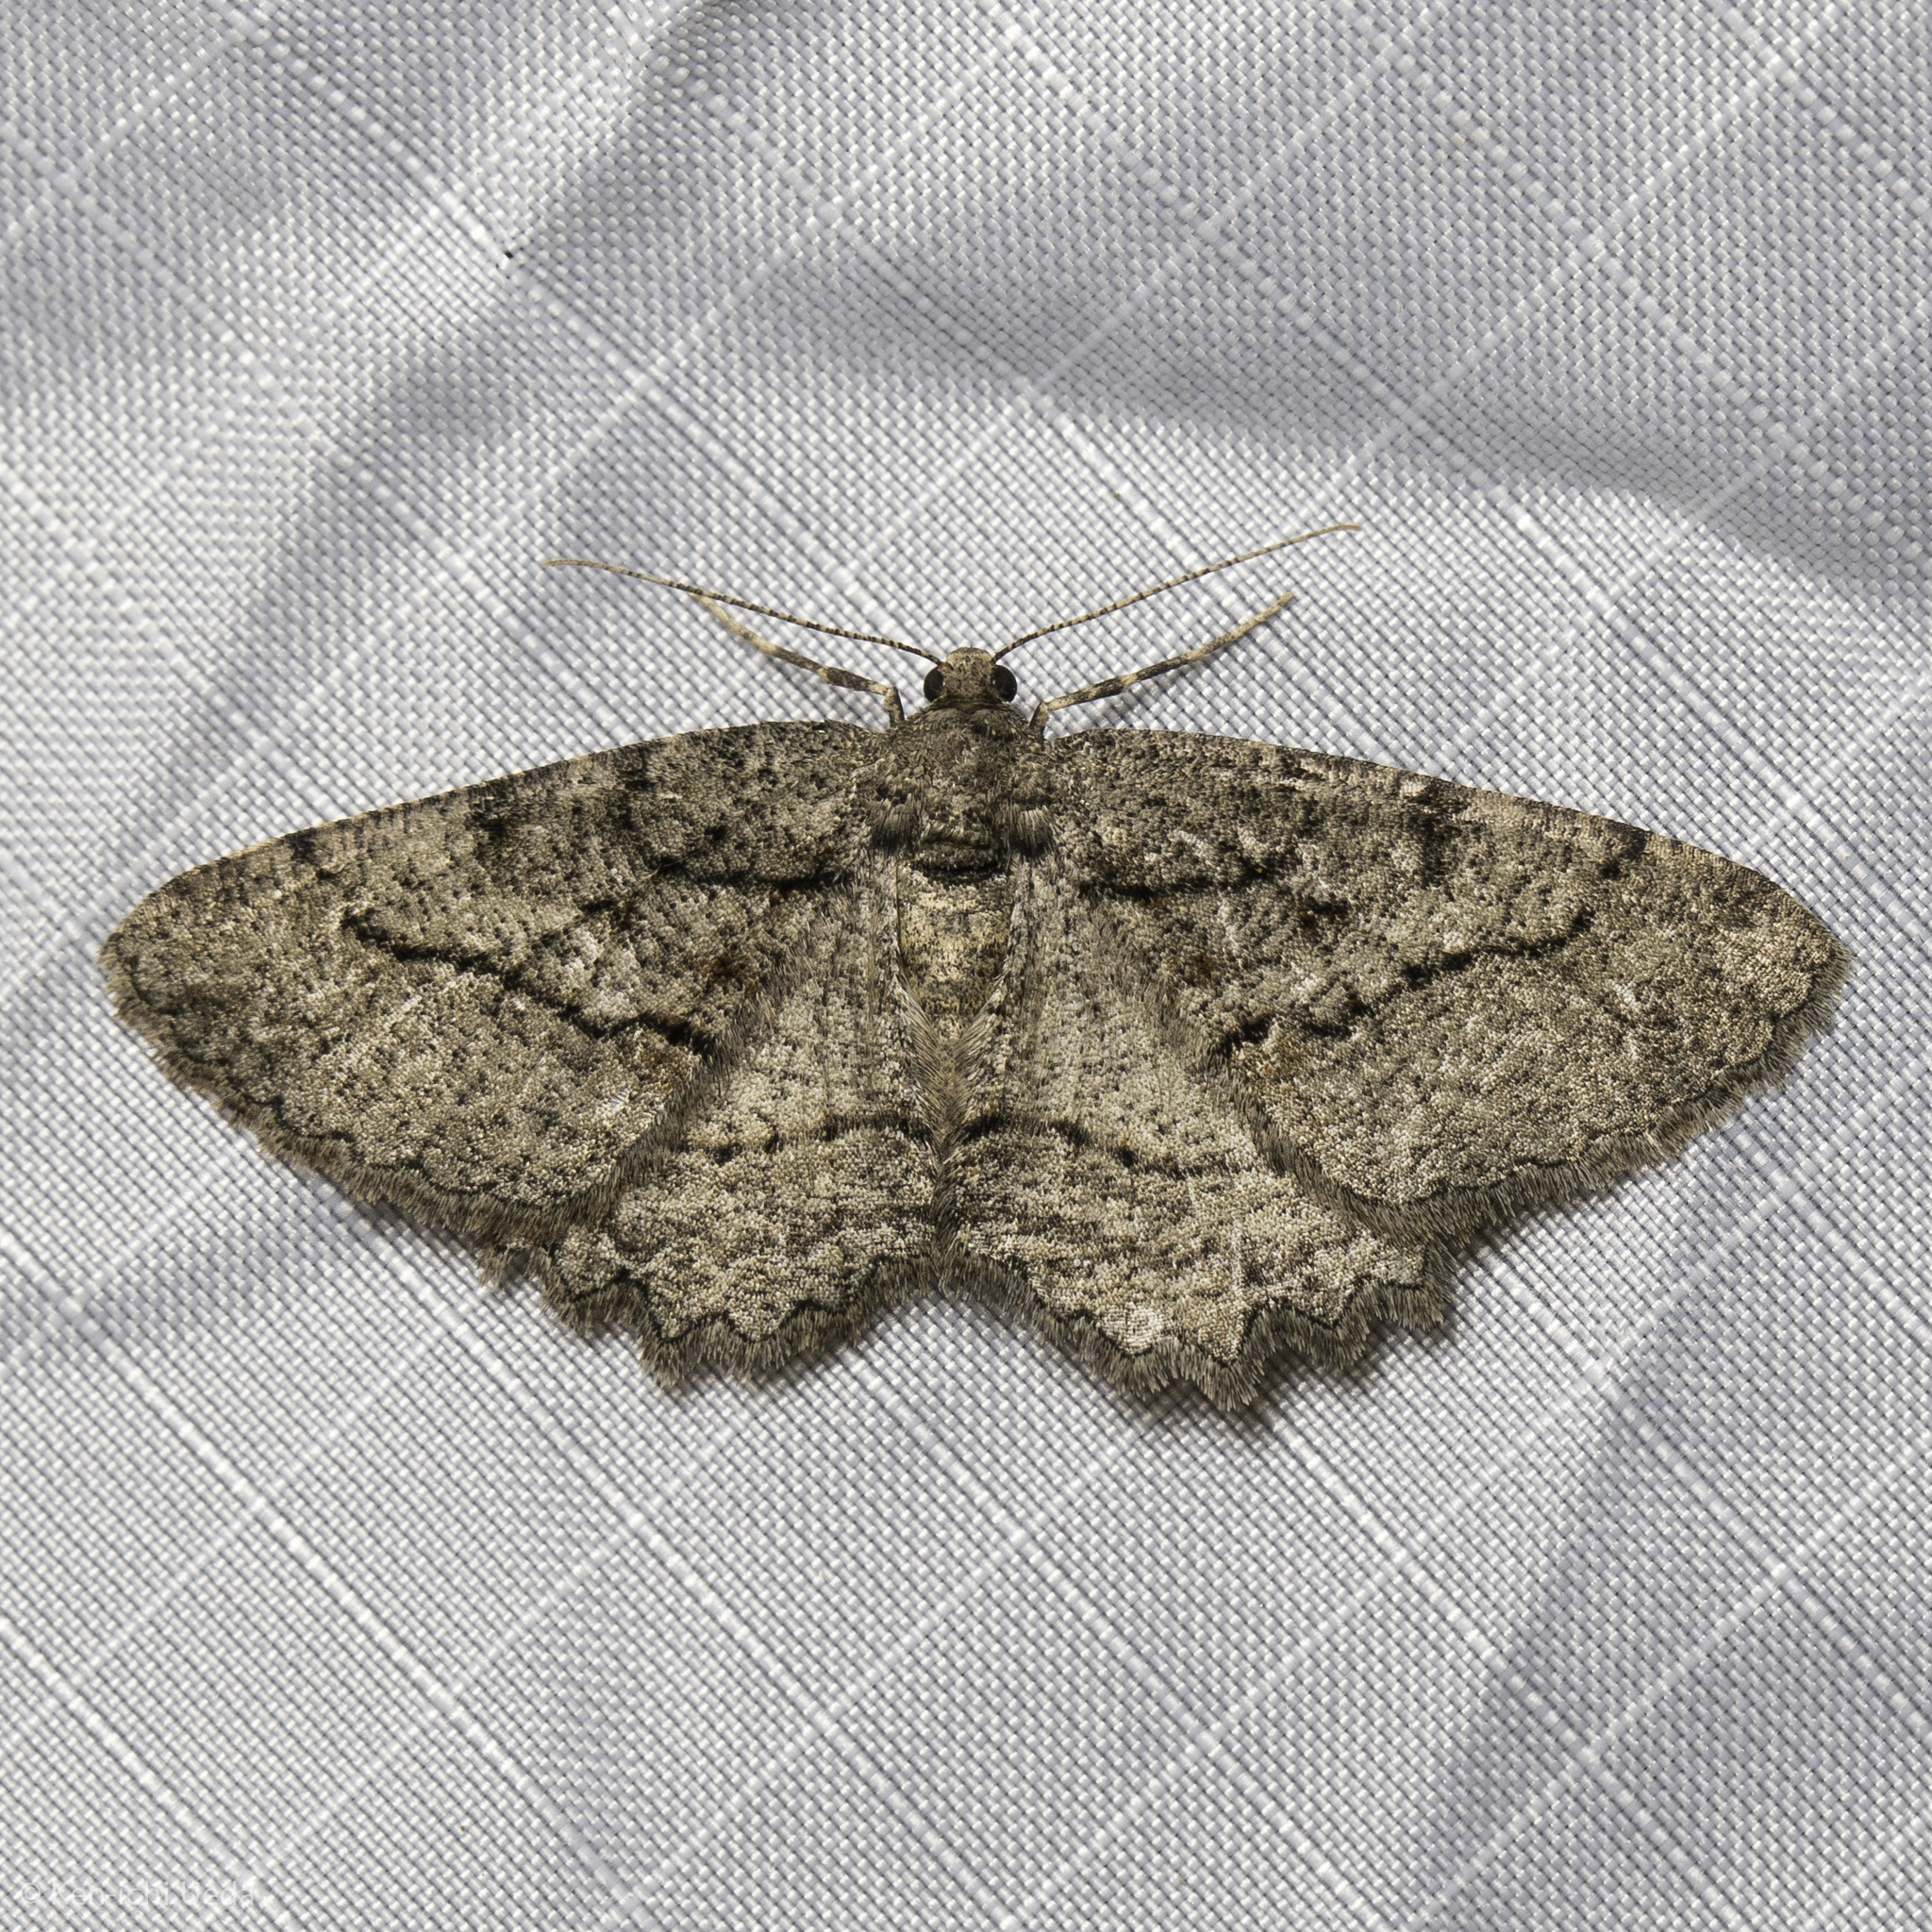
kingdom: Animalia
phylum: Arthropoda
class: Insecta
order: Lepidoptera
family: Geometridae
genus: Neoalcis
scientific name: Neoalcis californiaria
